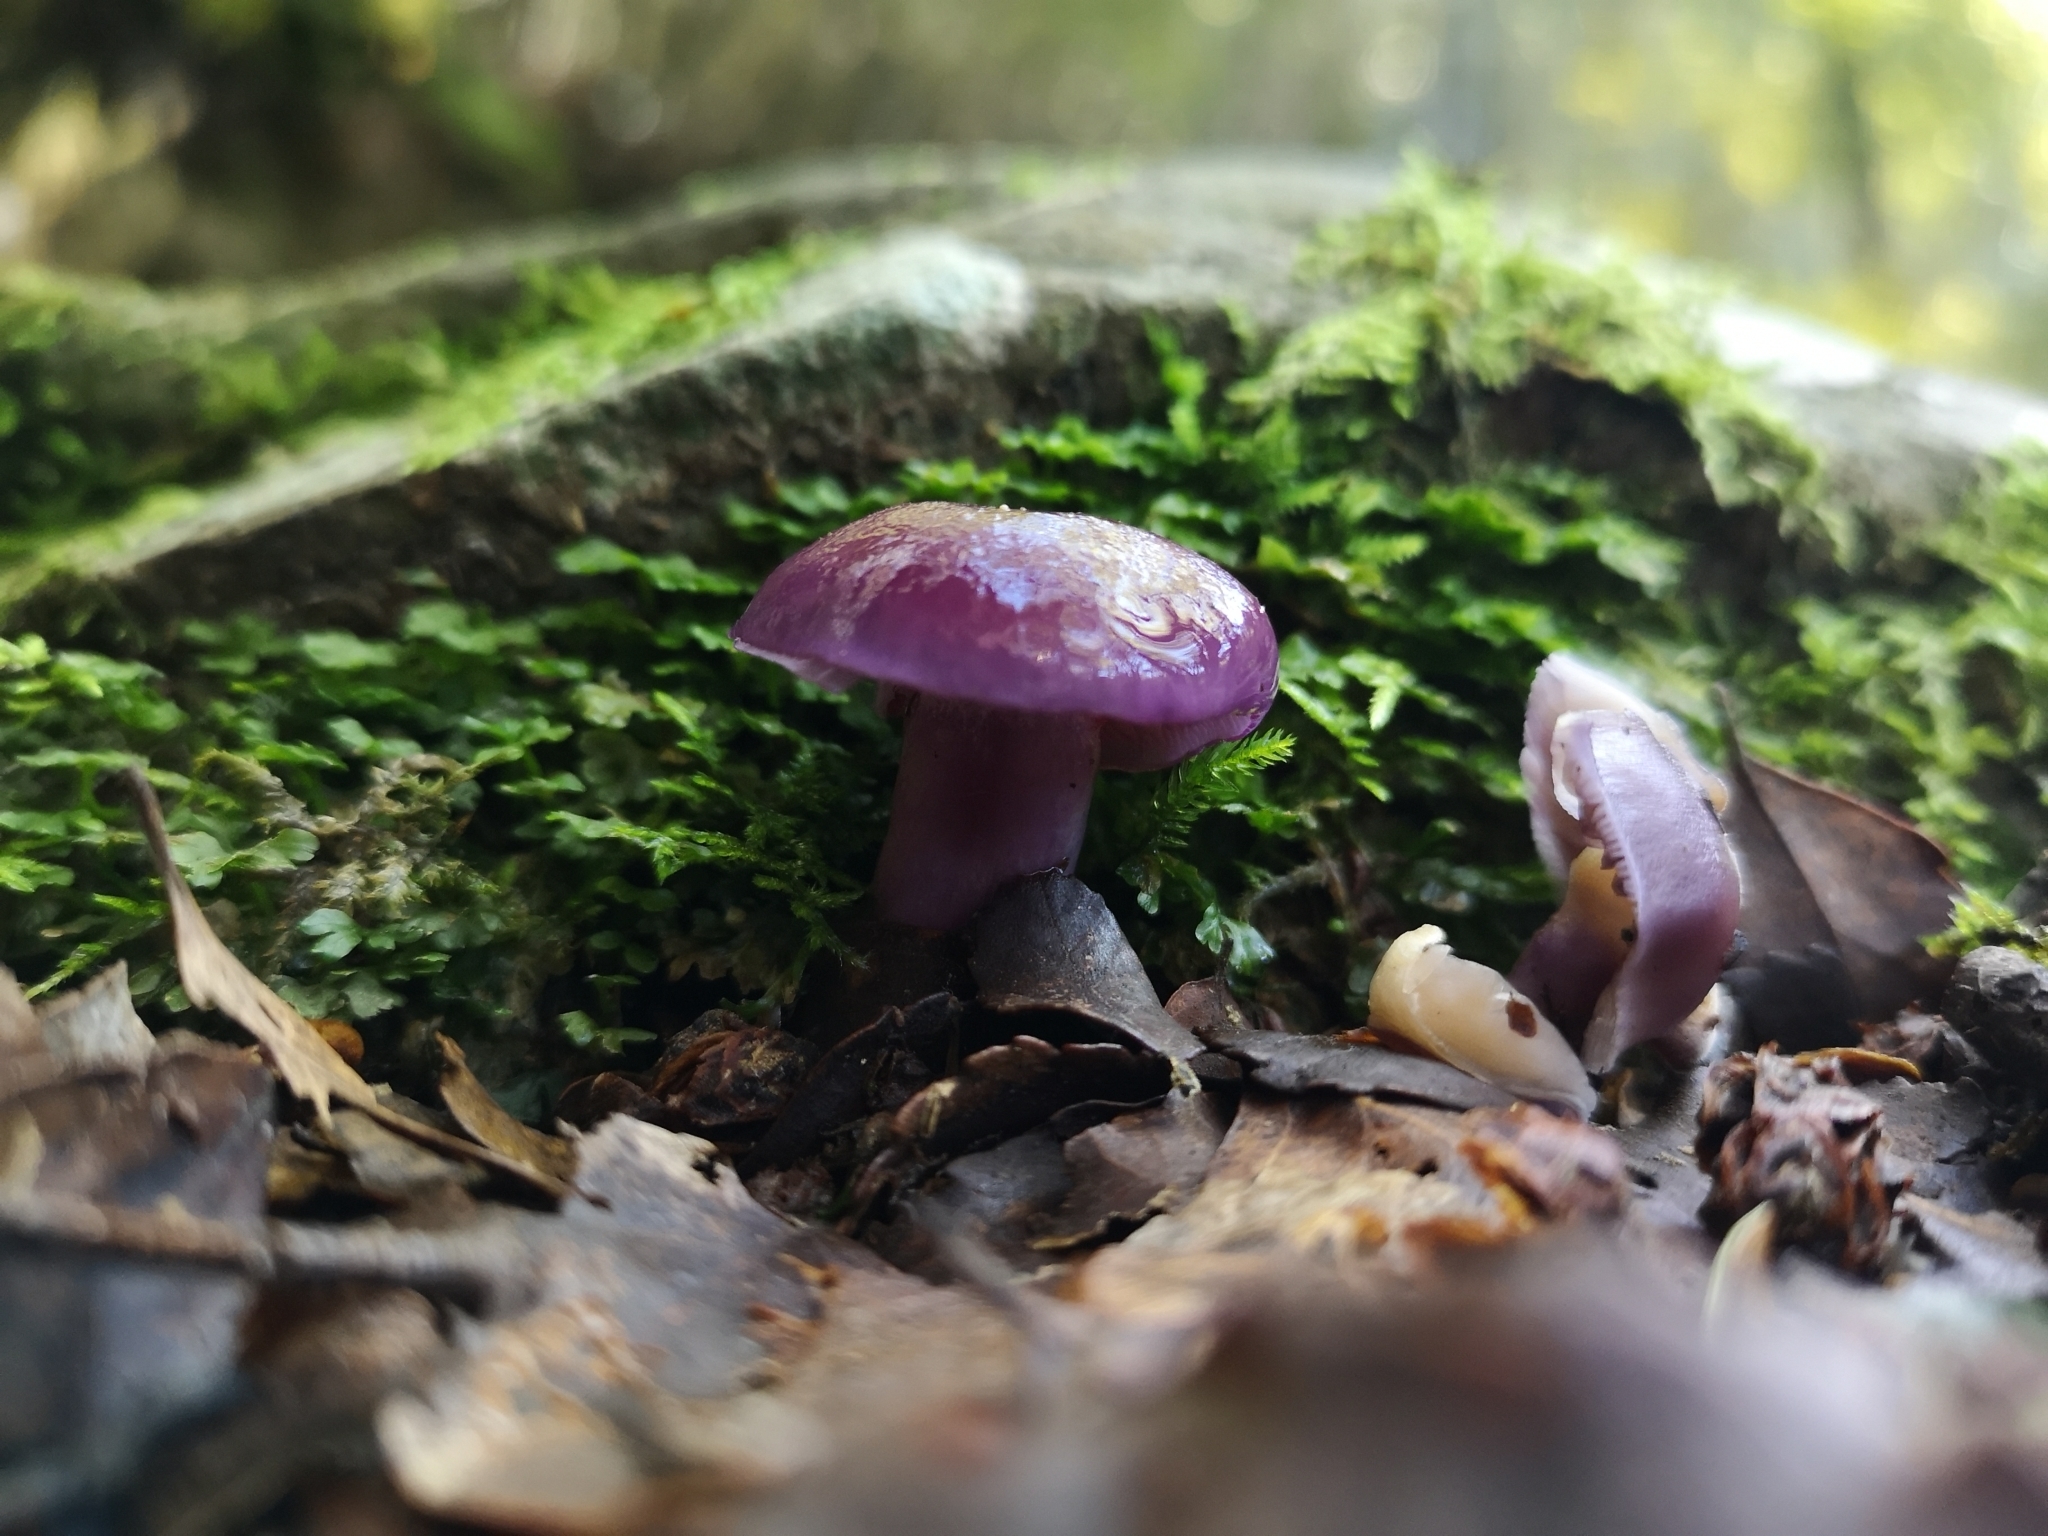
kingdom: Fungi
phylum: Basidiomycota
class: Agaricomycetes
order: Agaricales
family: Cortinariaceae
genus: Cortinarius
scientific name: Cortinarius lubricanescens
